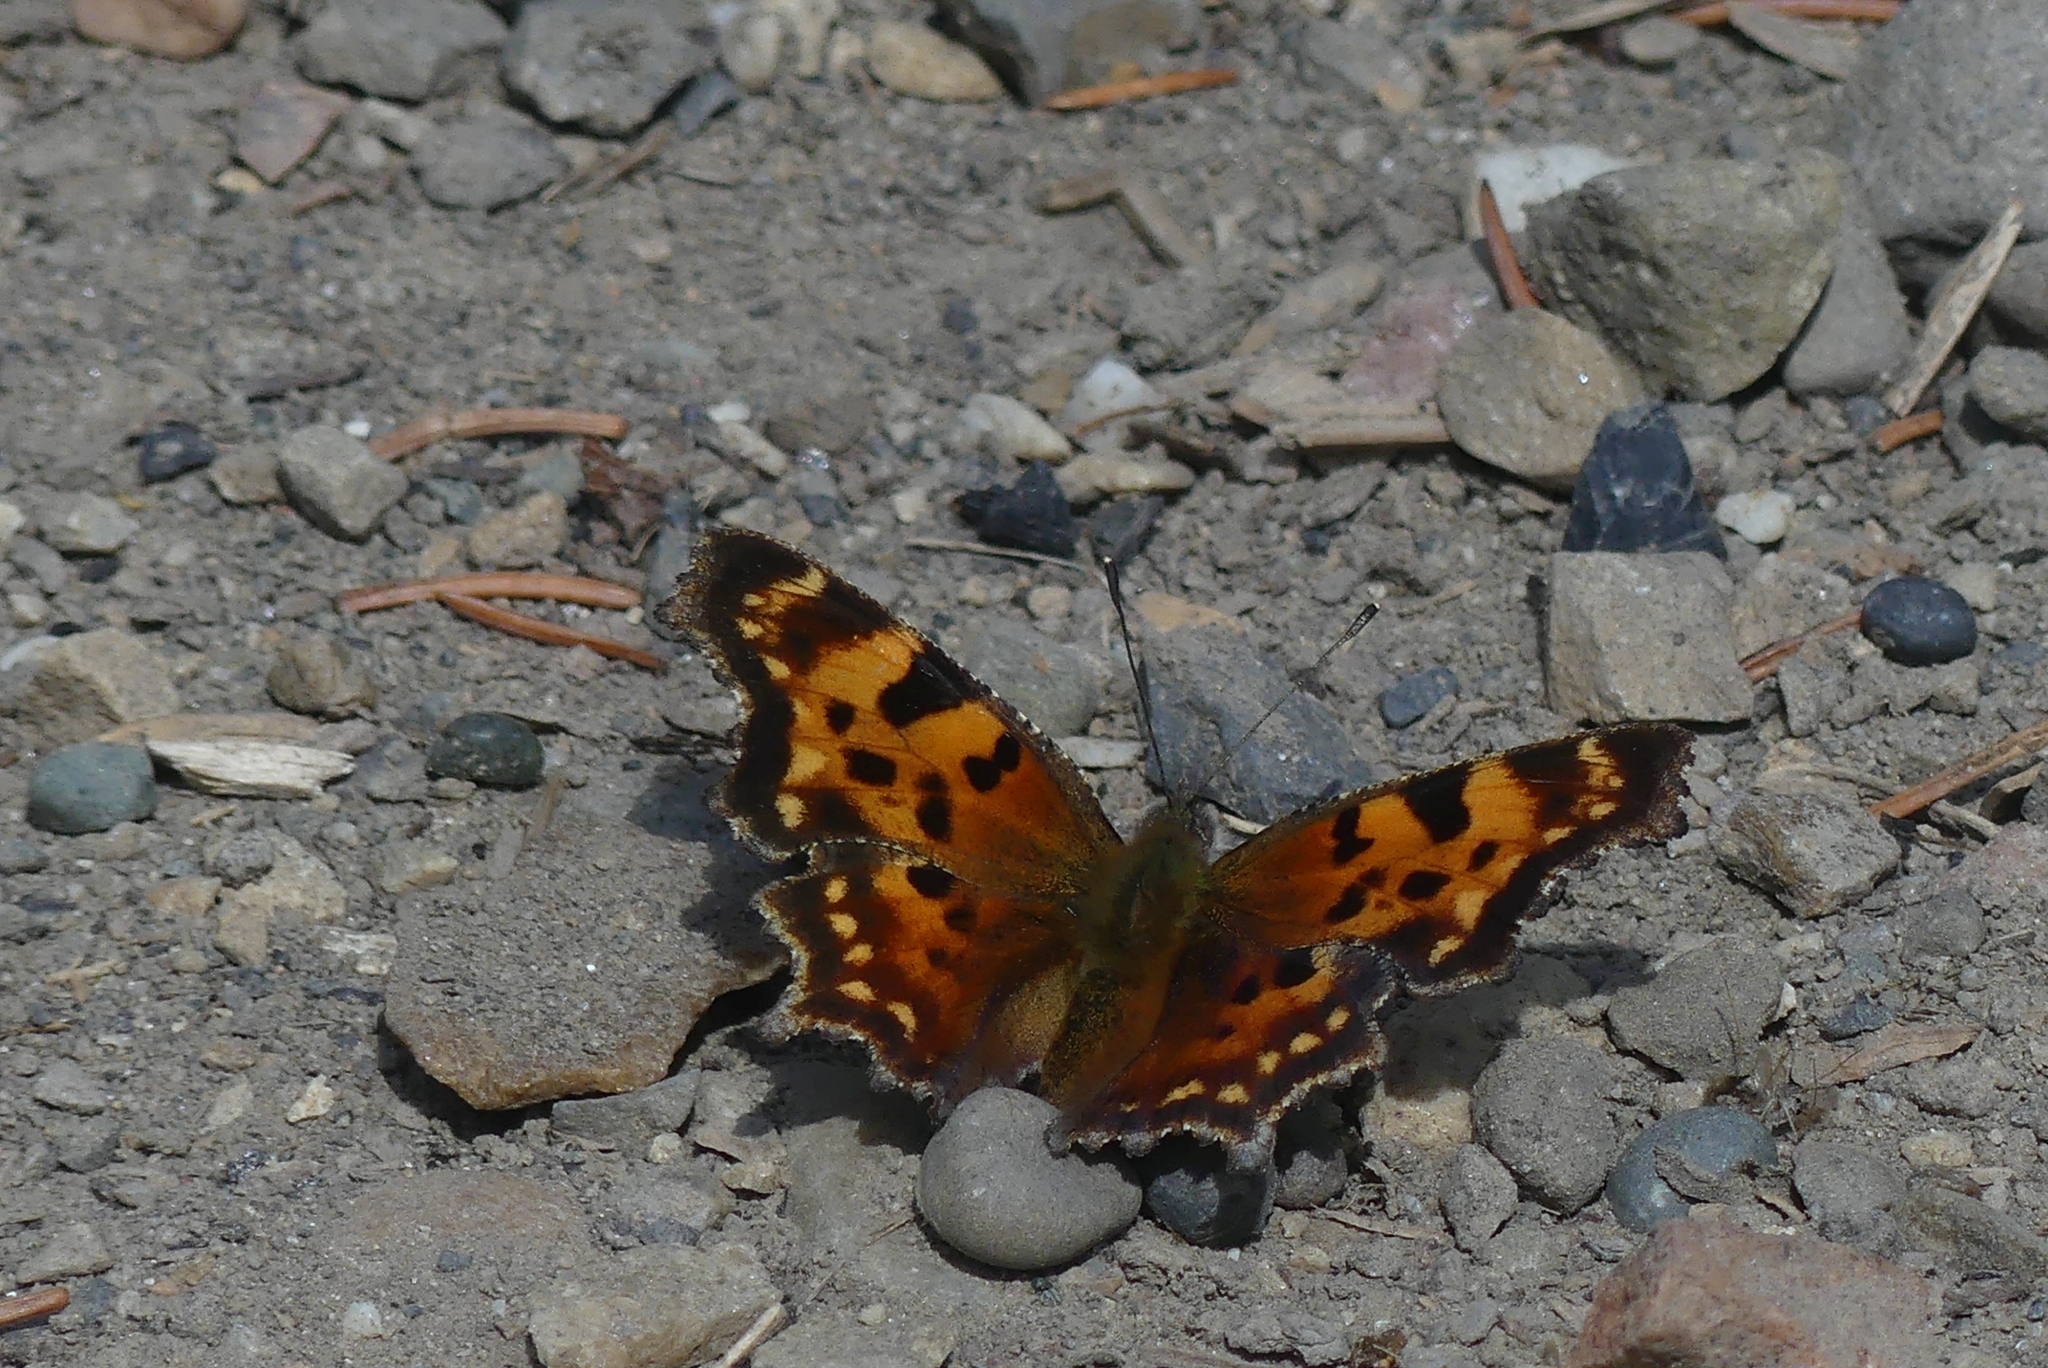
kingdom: Animalia
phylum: Arthropoda
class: Insecta
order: Lepidoptera
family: Nymphalidae
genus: Polygonia
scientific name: Polygonia faunus
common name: Green comma
